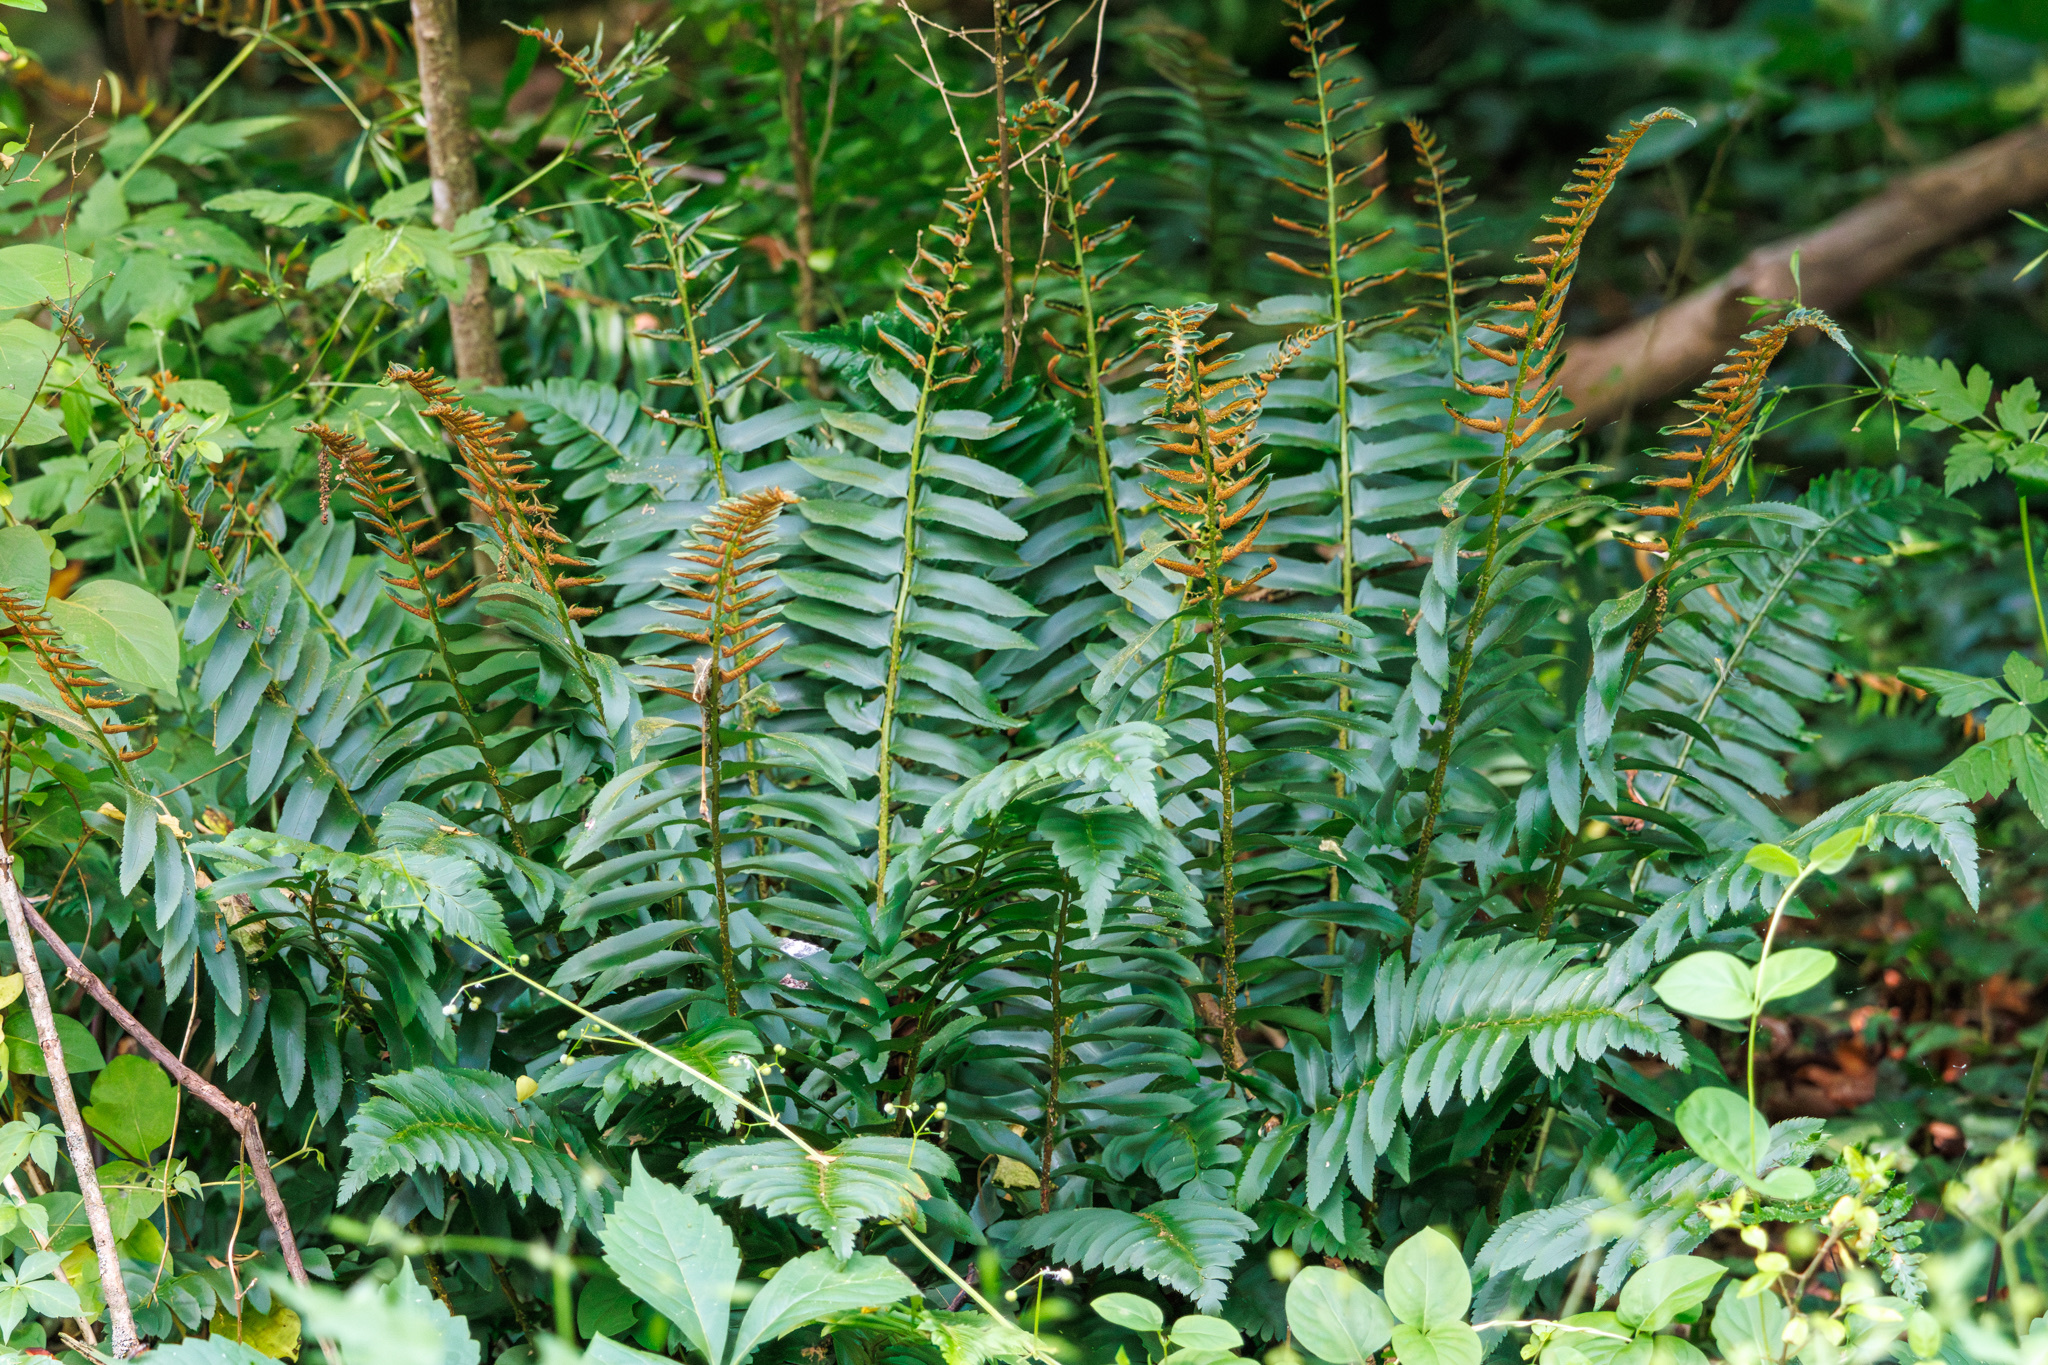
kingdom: Plantae
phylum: Tracheophyta
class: Polypodiopsida
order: Polypodiales
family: Dryopteridaceae
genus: Polystichum
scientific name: Polystichum acrostichoides
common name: Christmas fern
